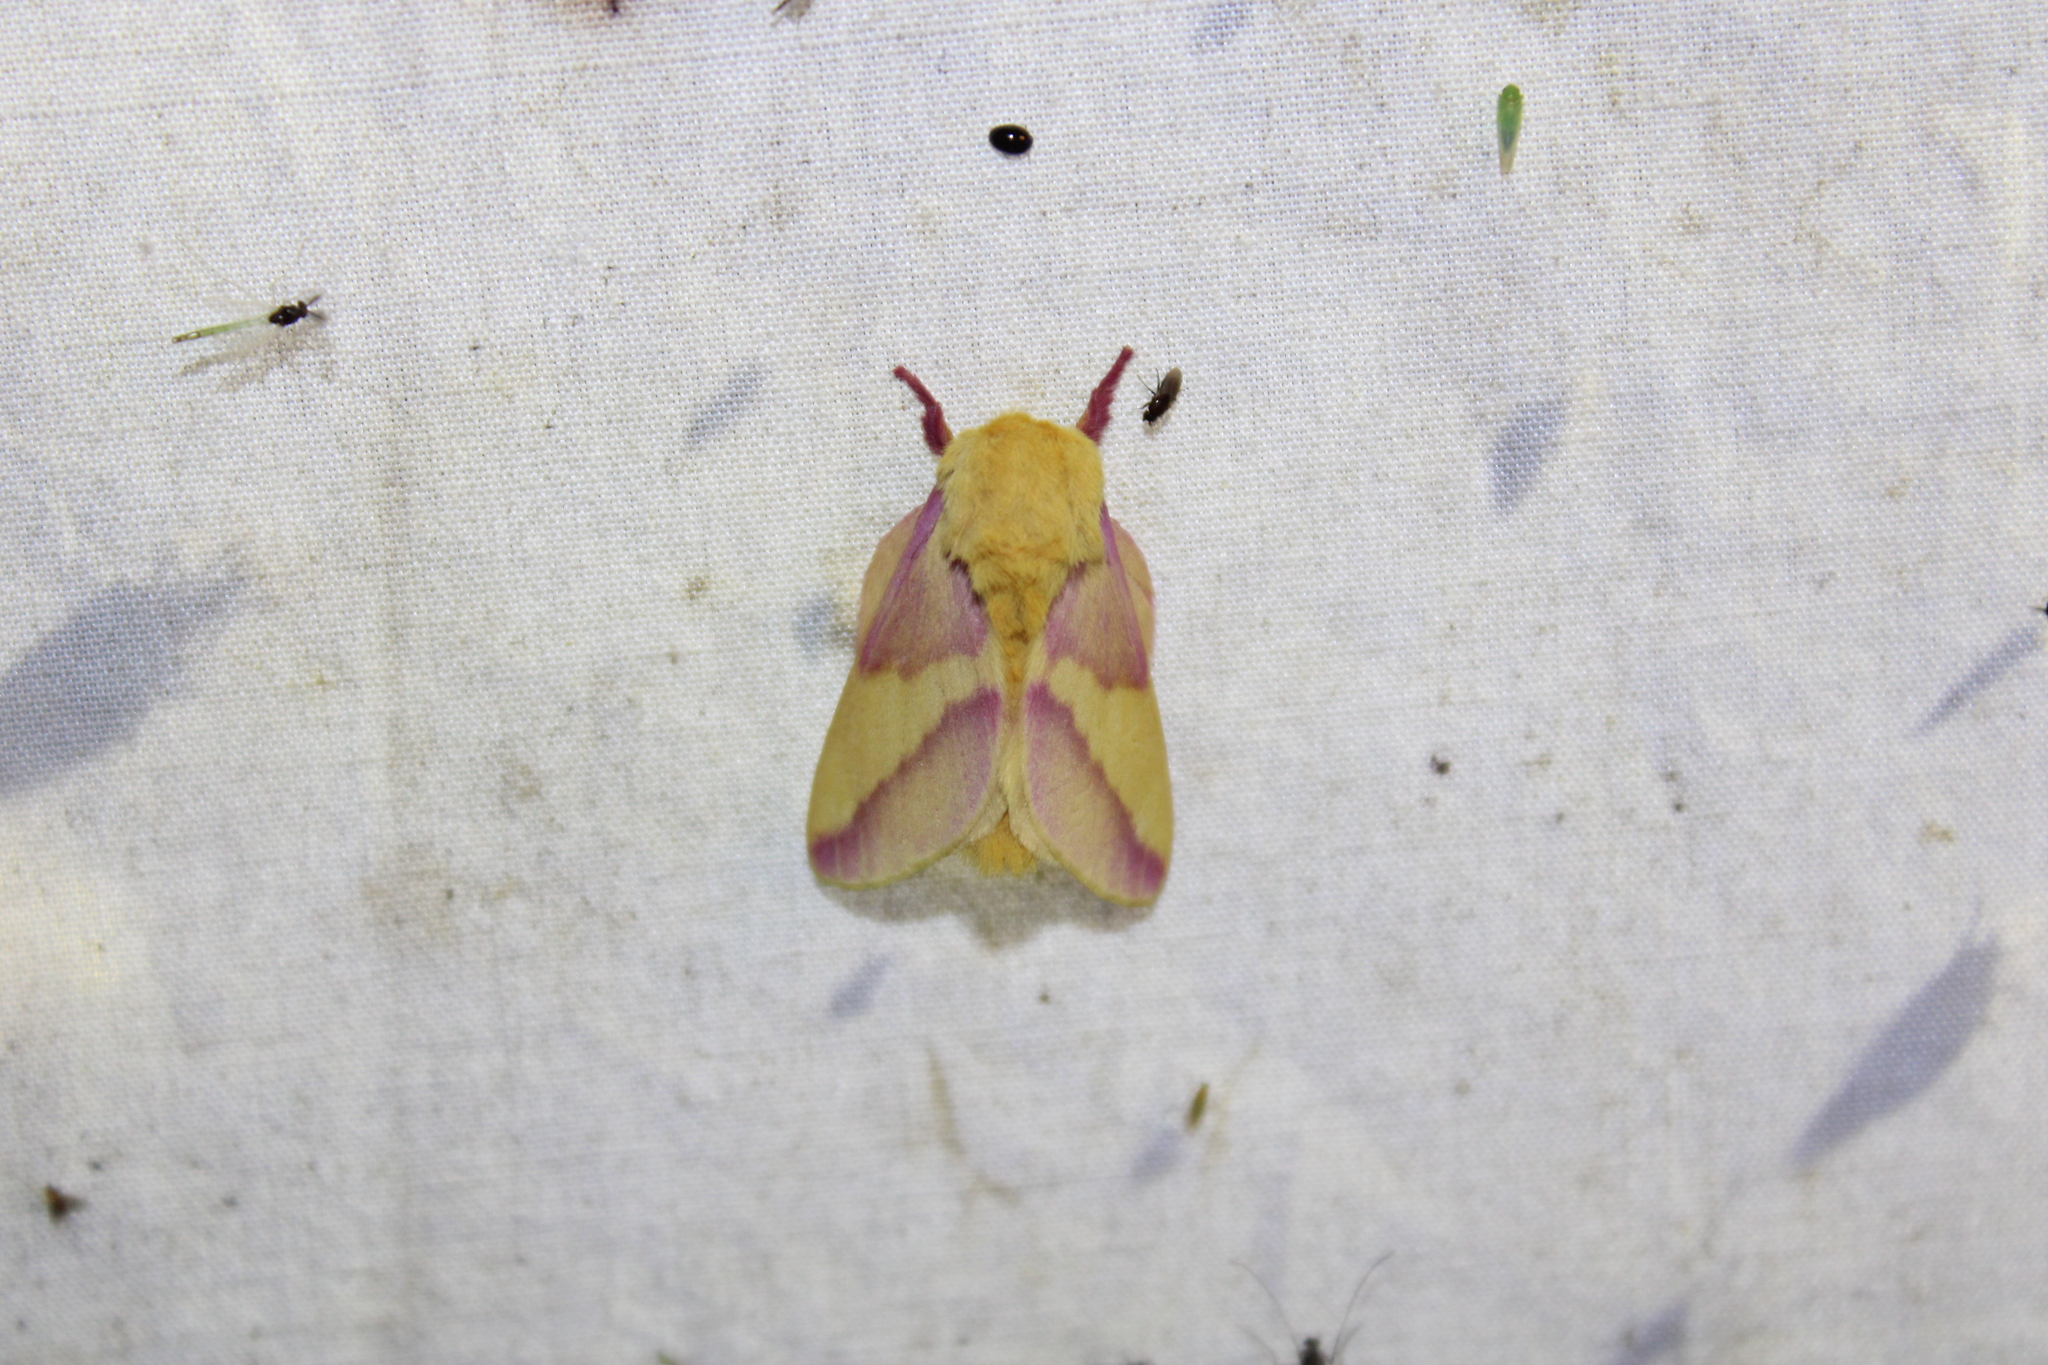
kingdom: Animalia
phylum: Arthropoda
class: Insecta
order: Lepidoptera
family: Saturniidae
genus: Dryocampa
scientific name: Dryocampa rubicunda
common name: Rosy maple moth
